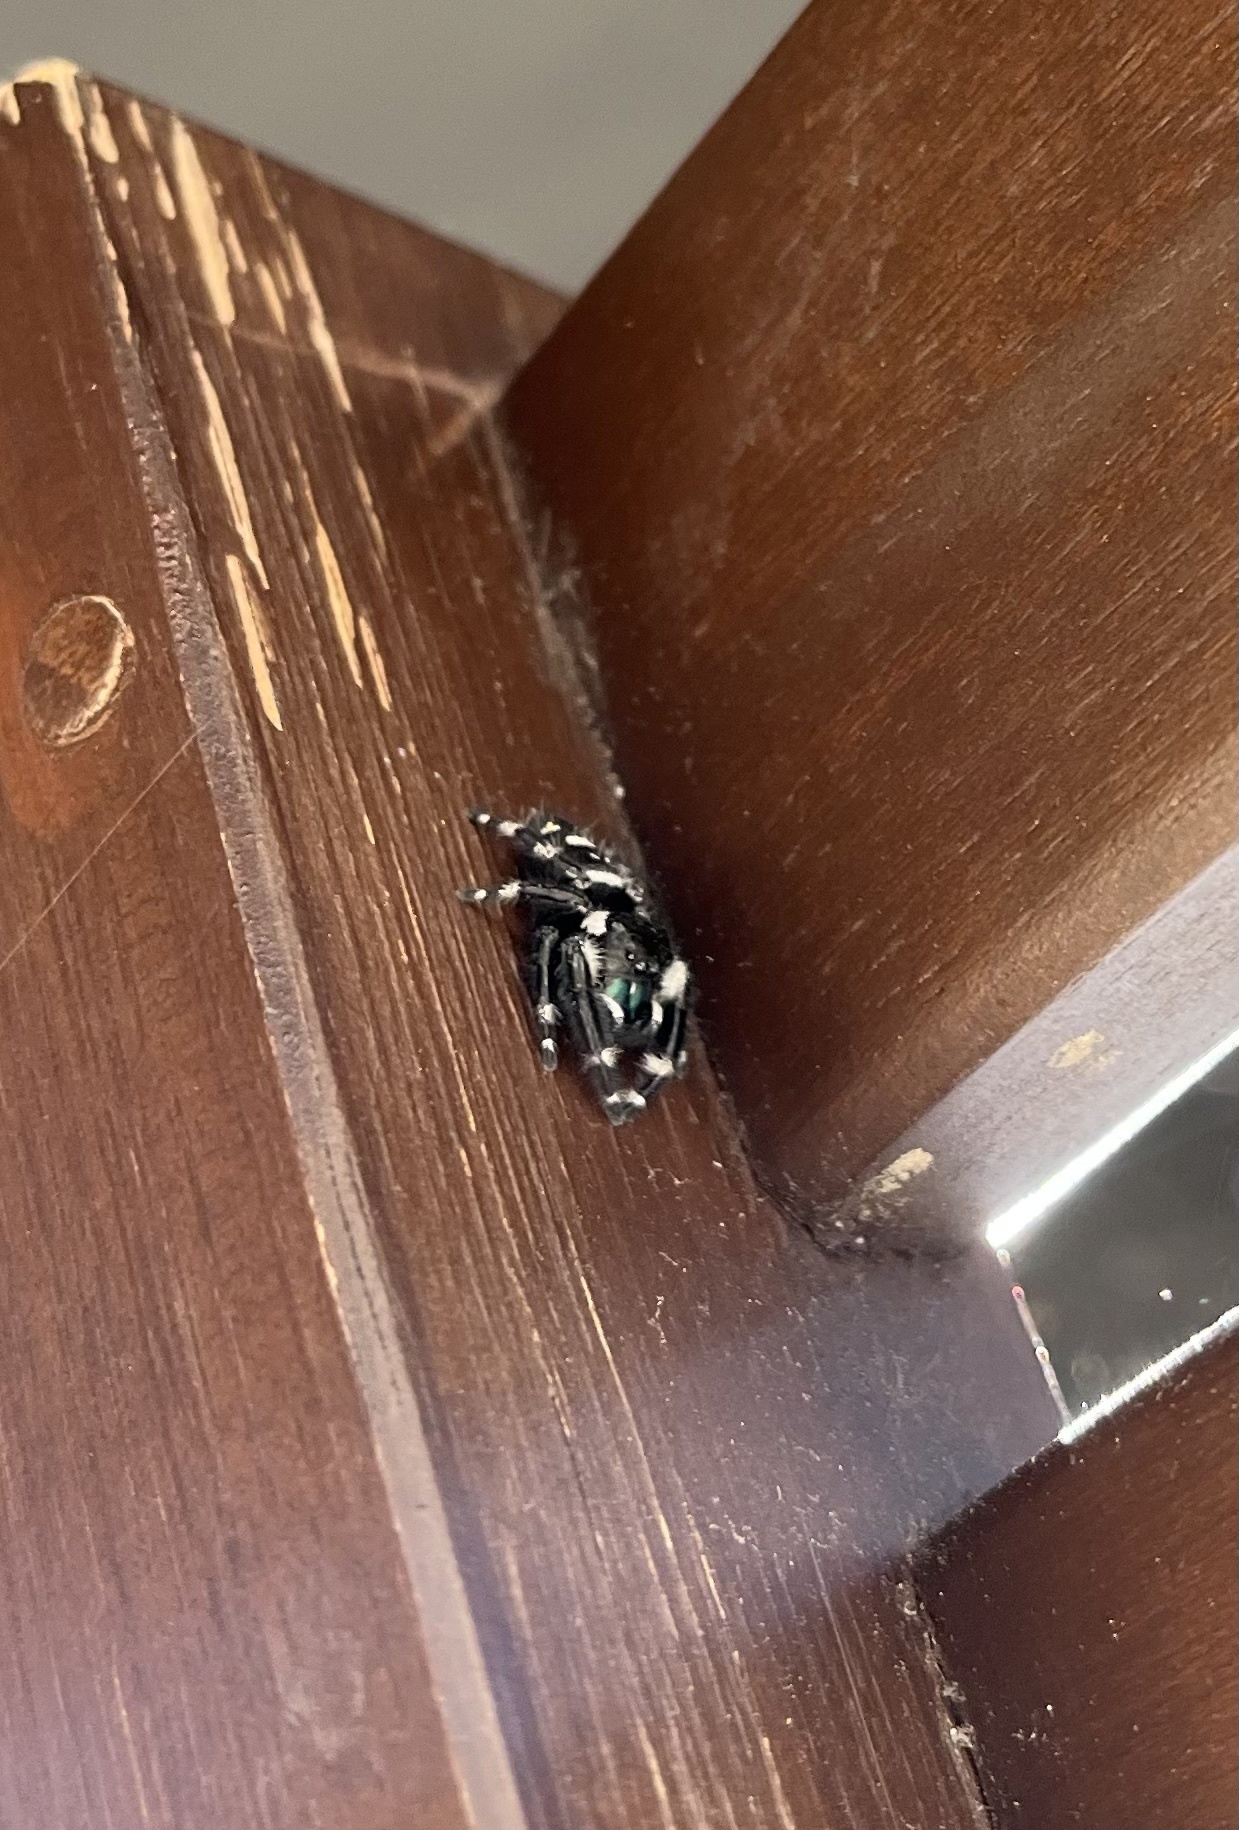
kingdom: Animalia
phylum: Arthropoda
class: Arachnida
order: Araneae
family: Salticidae
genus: Phidippus
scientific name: Phidippus audax
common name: Bold jumper
